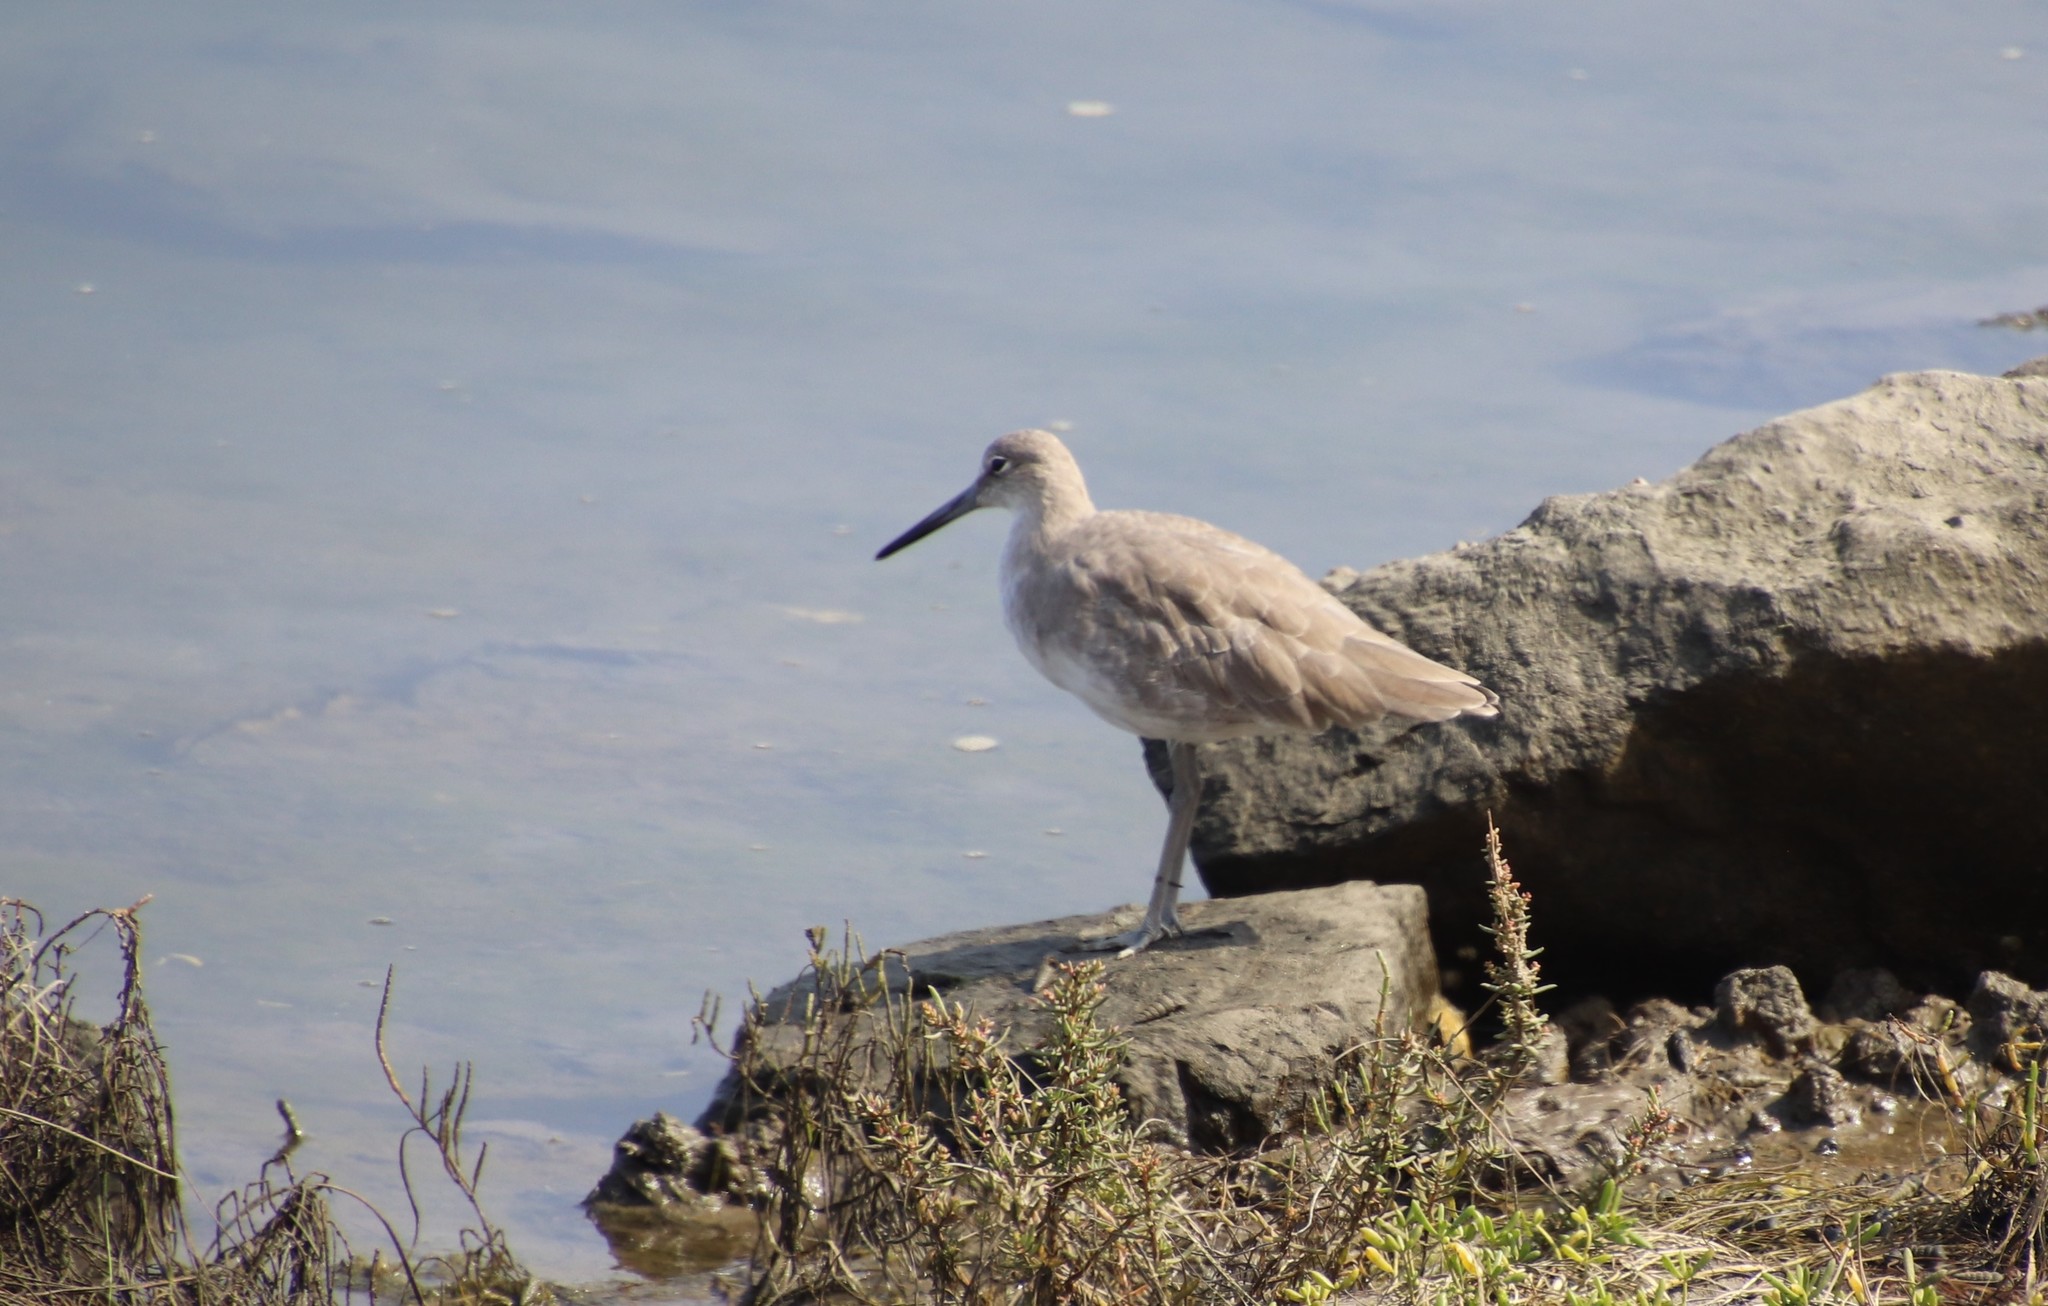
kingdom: Animalia
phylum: Chordata
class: Aves
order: Charadriiformes
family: Scolopacidae
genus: Tringa
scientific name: Tringa semipalmata
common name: Willet
